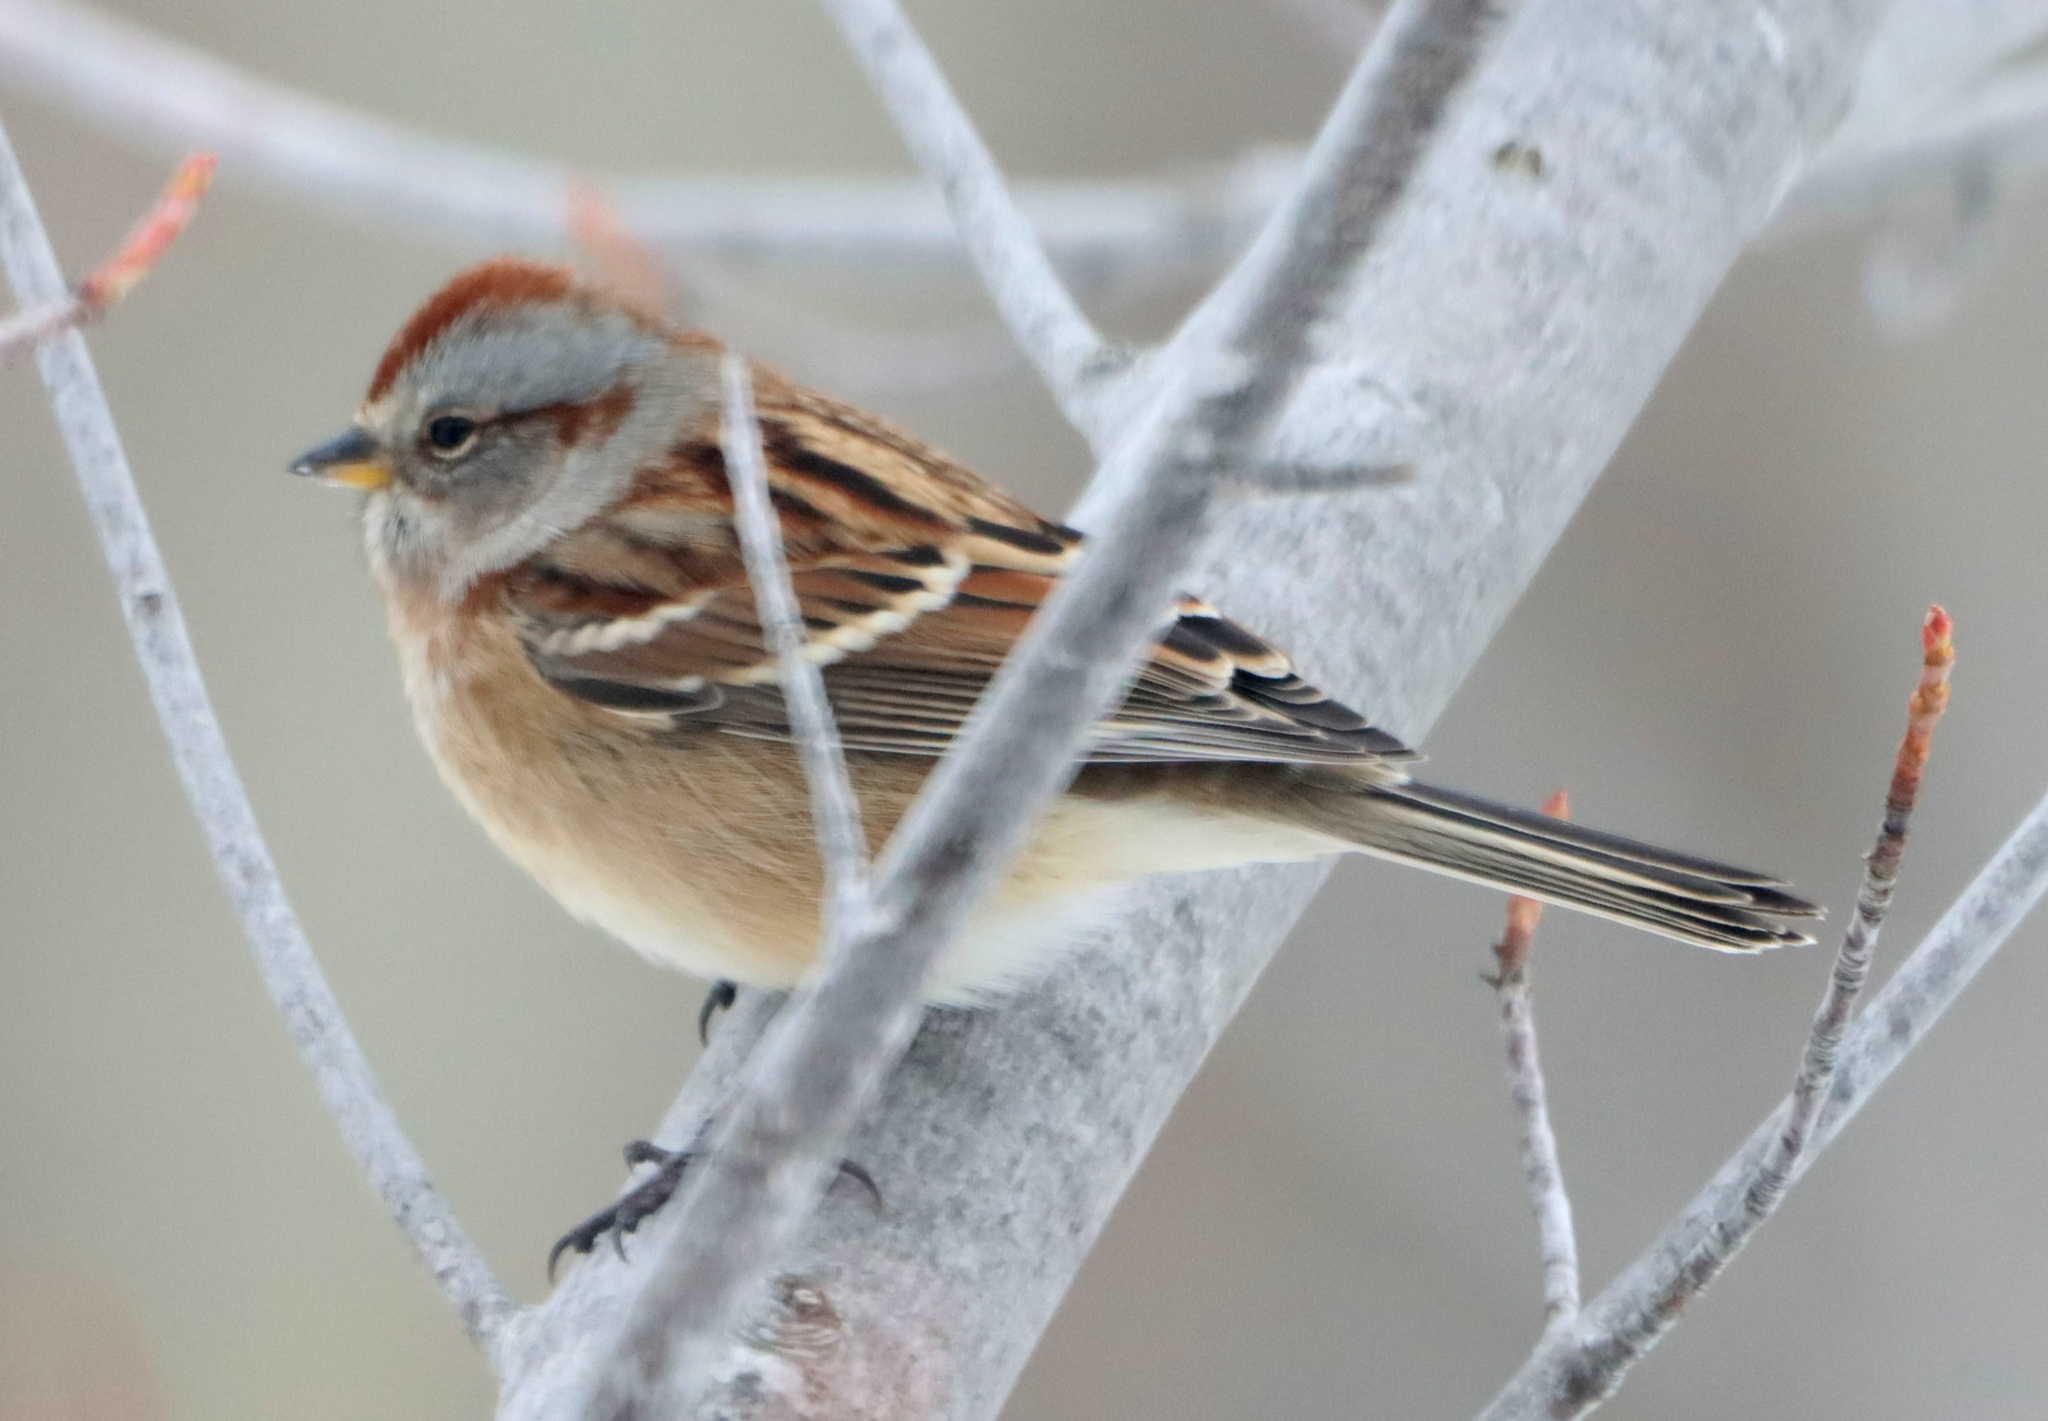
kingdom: Animalia
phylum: Chordata
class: Aves
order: Passeriformes
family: Passerellidae
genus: Spizelloides
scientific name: Spizelloides arborea
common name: American tree sparrow
